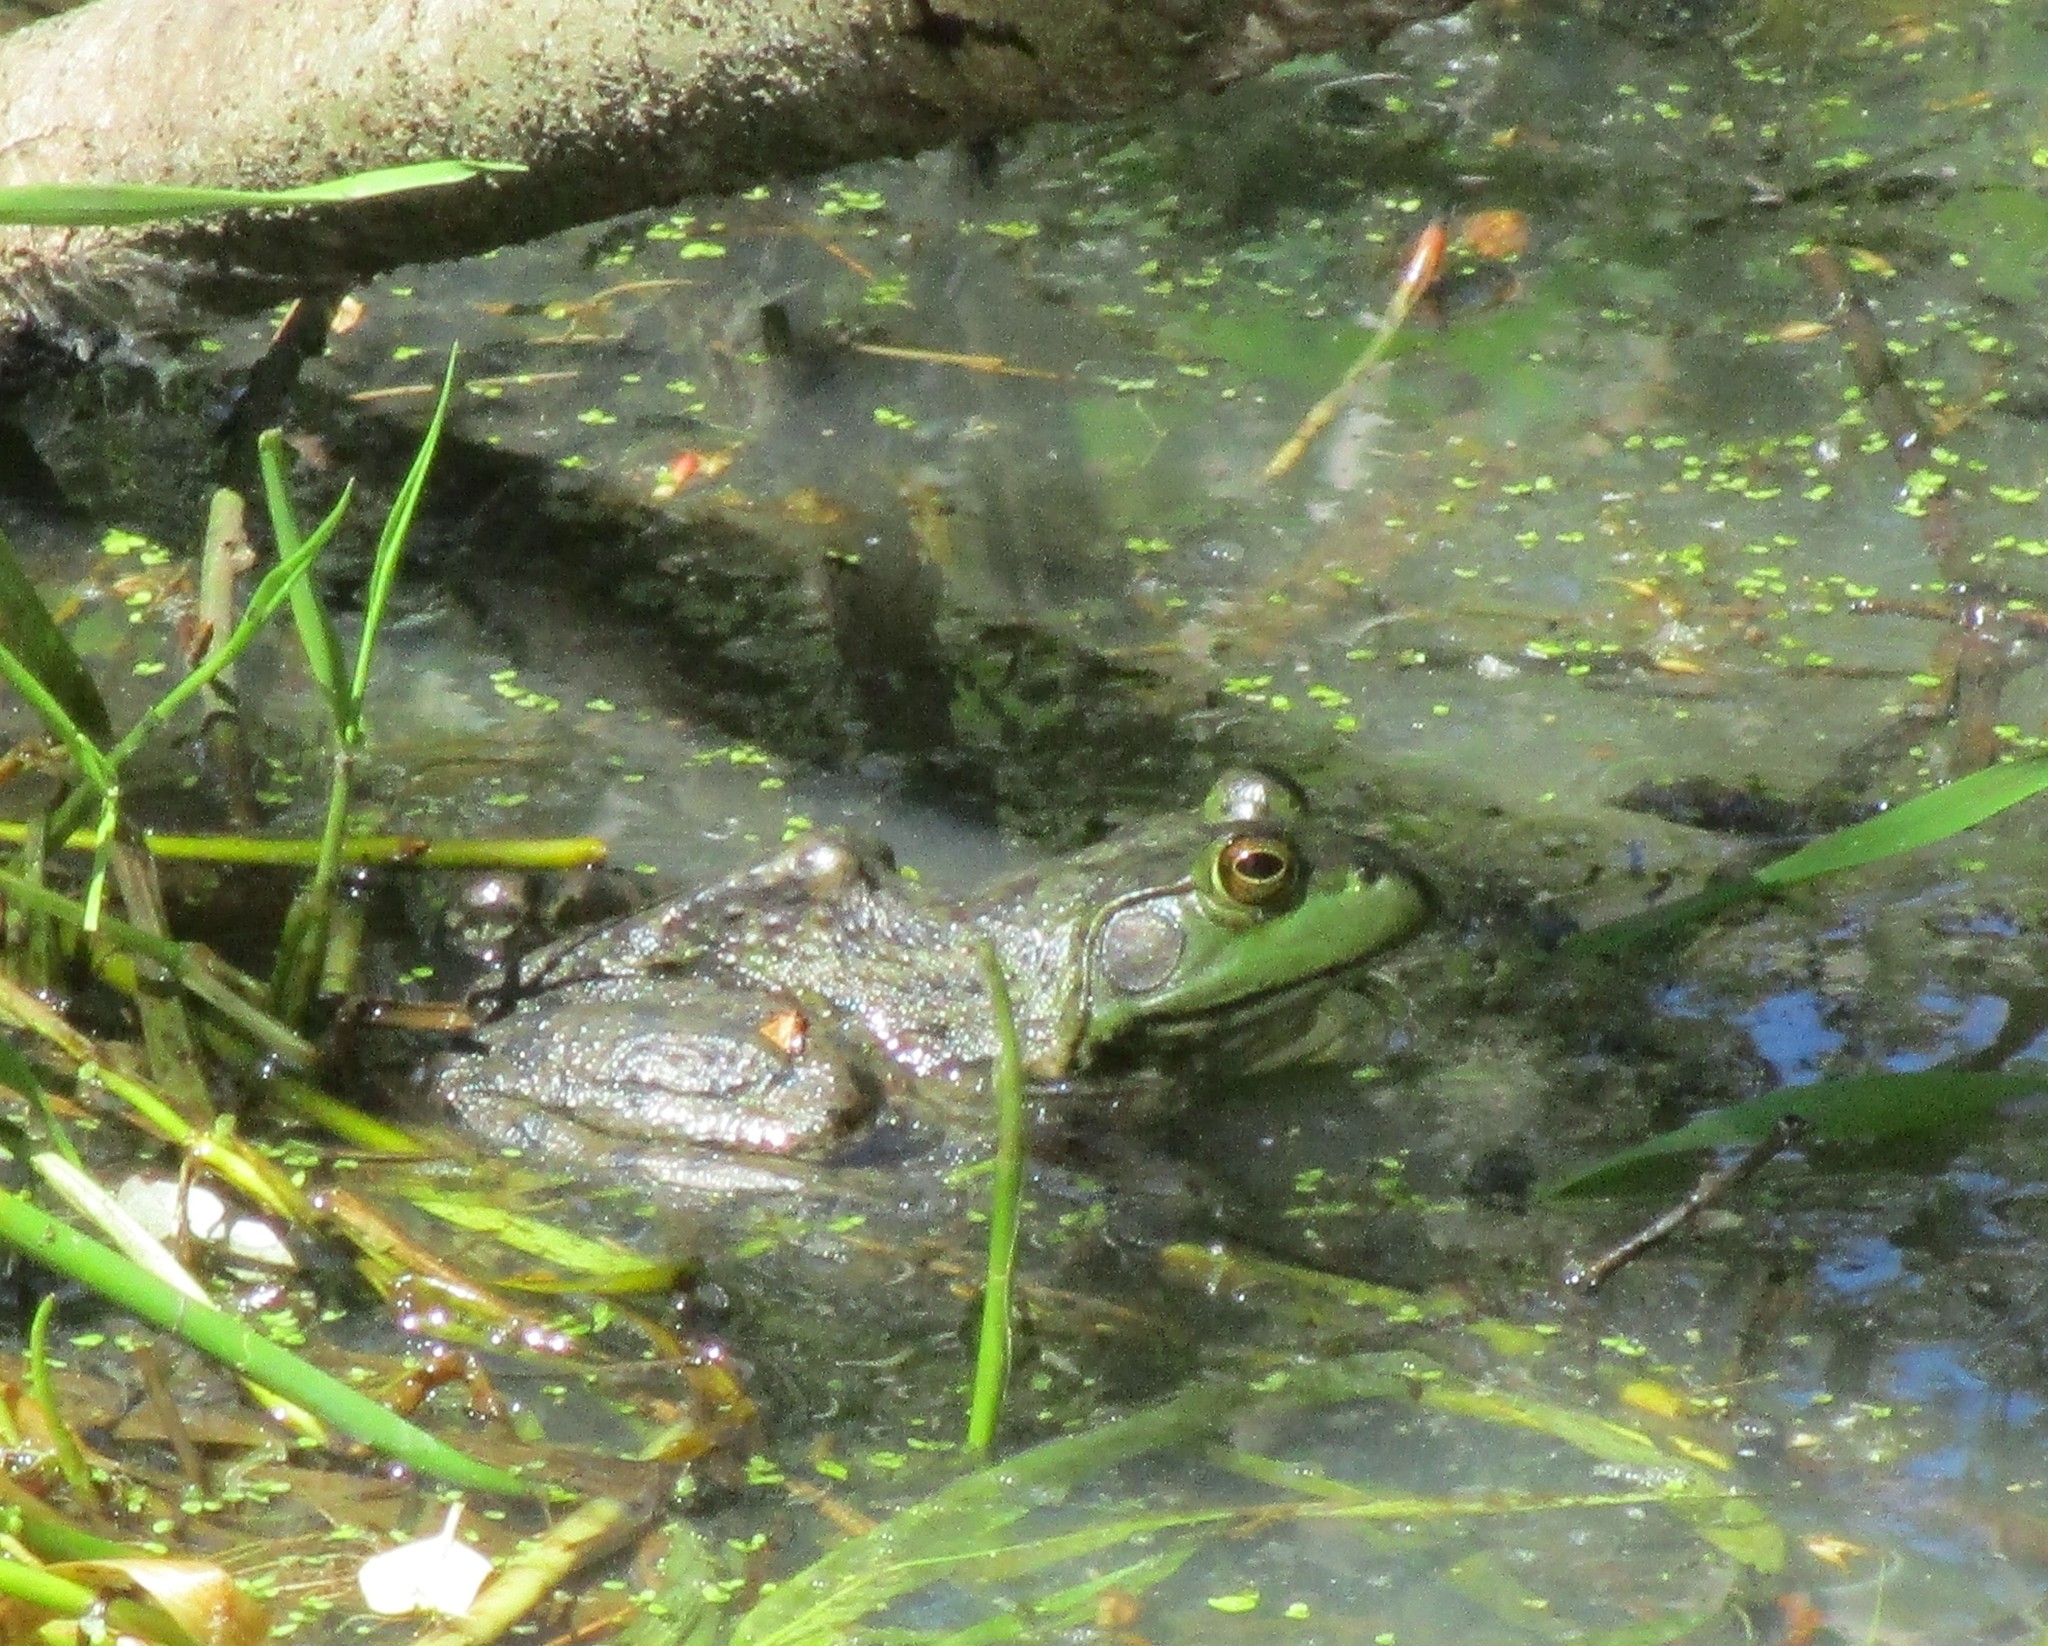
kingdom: Animalia
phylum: Chordata
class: Amphibia
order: Anura
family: Ranidae
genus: Lithobates
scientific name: Lithobates catesbeianus
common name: American bullfrog
